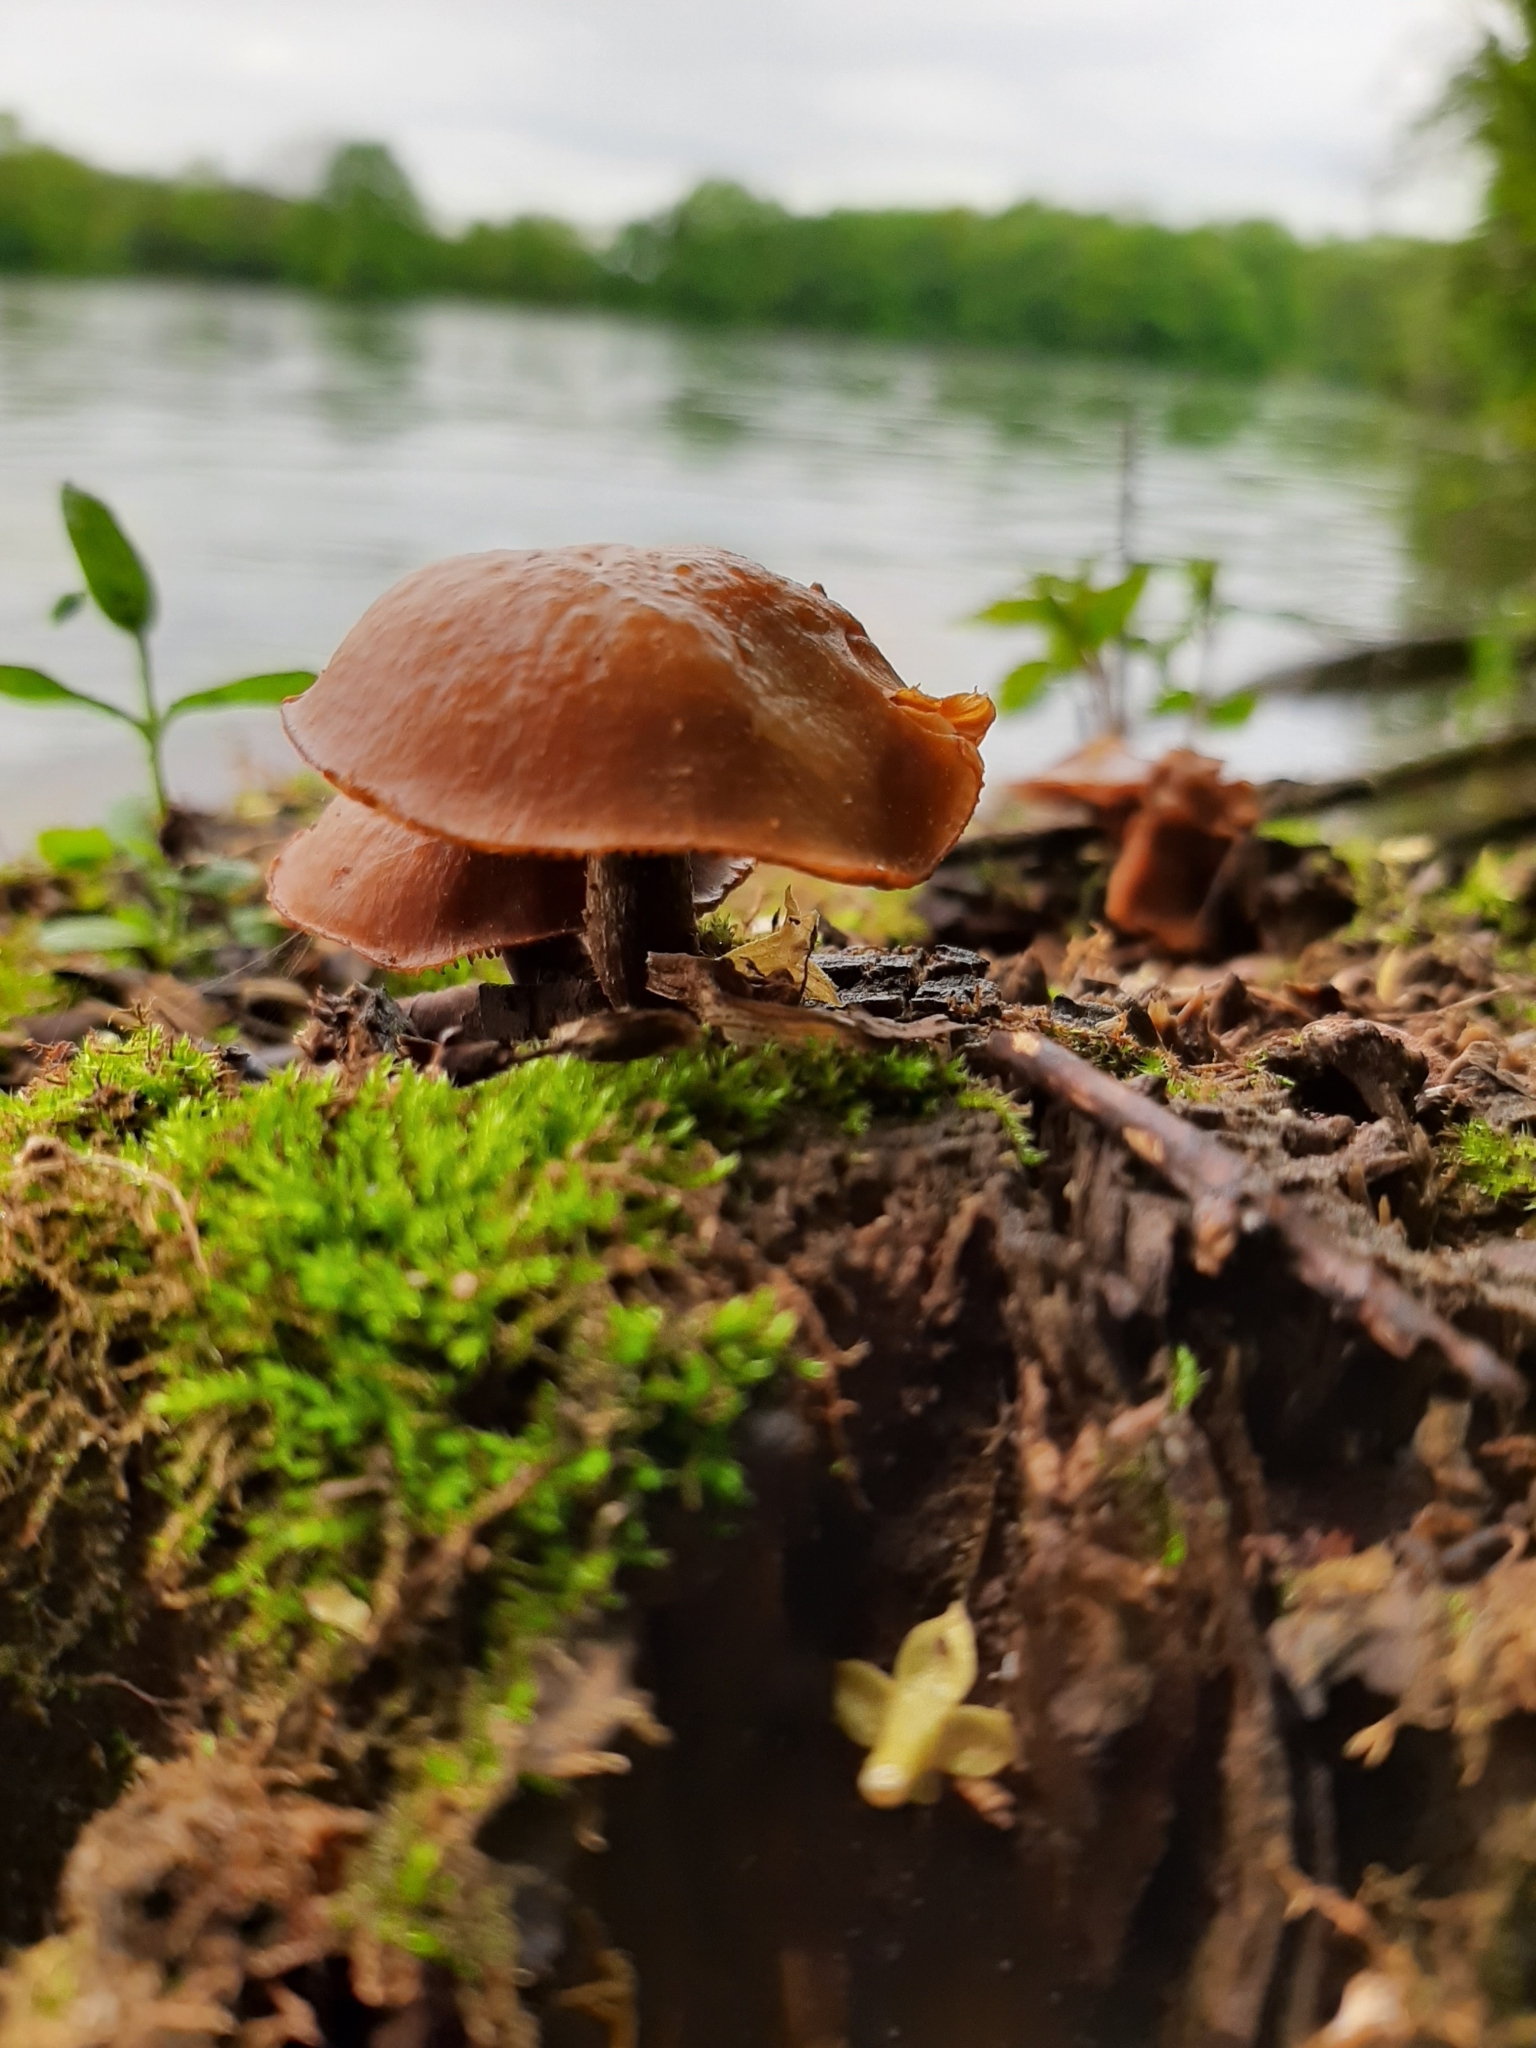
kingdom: Fungi
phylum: Basidiomycota
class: Agaricomycetes
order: Agaricales
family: Hymenogastraceae
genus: Galerina
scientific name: Galerina marginata
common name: Funeral bell
